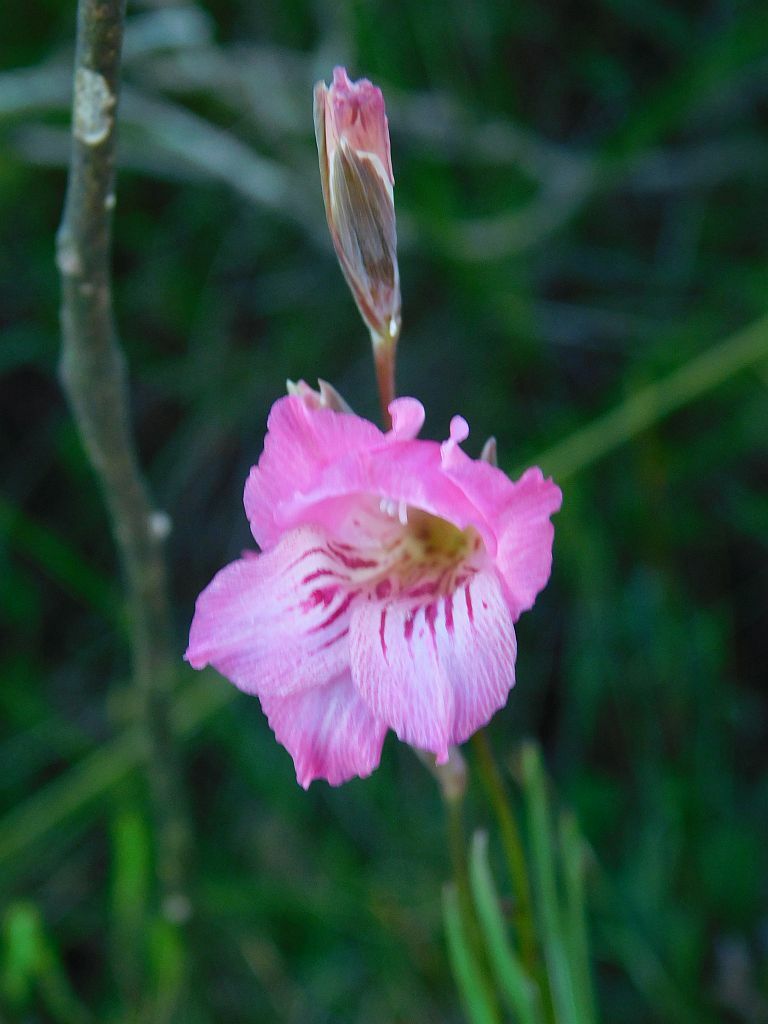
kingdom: Plantae
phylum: Tracheophyta
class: Liliopsida
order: Asparagales
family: Iridaceae
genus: Gladiolus
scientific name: Gladiolus hirsutus
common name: Small pink afrikaner
